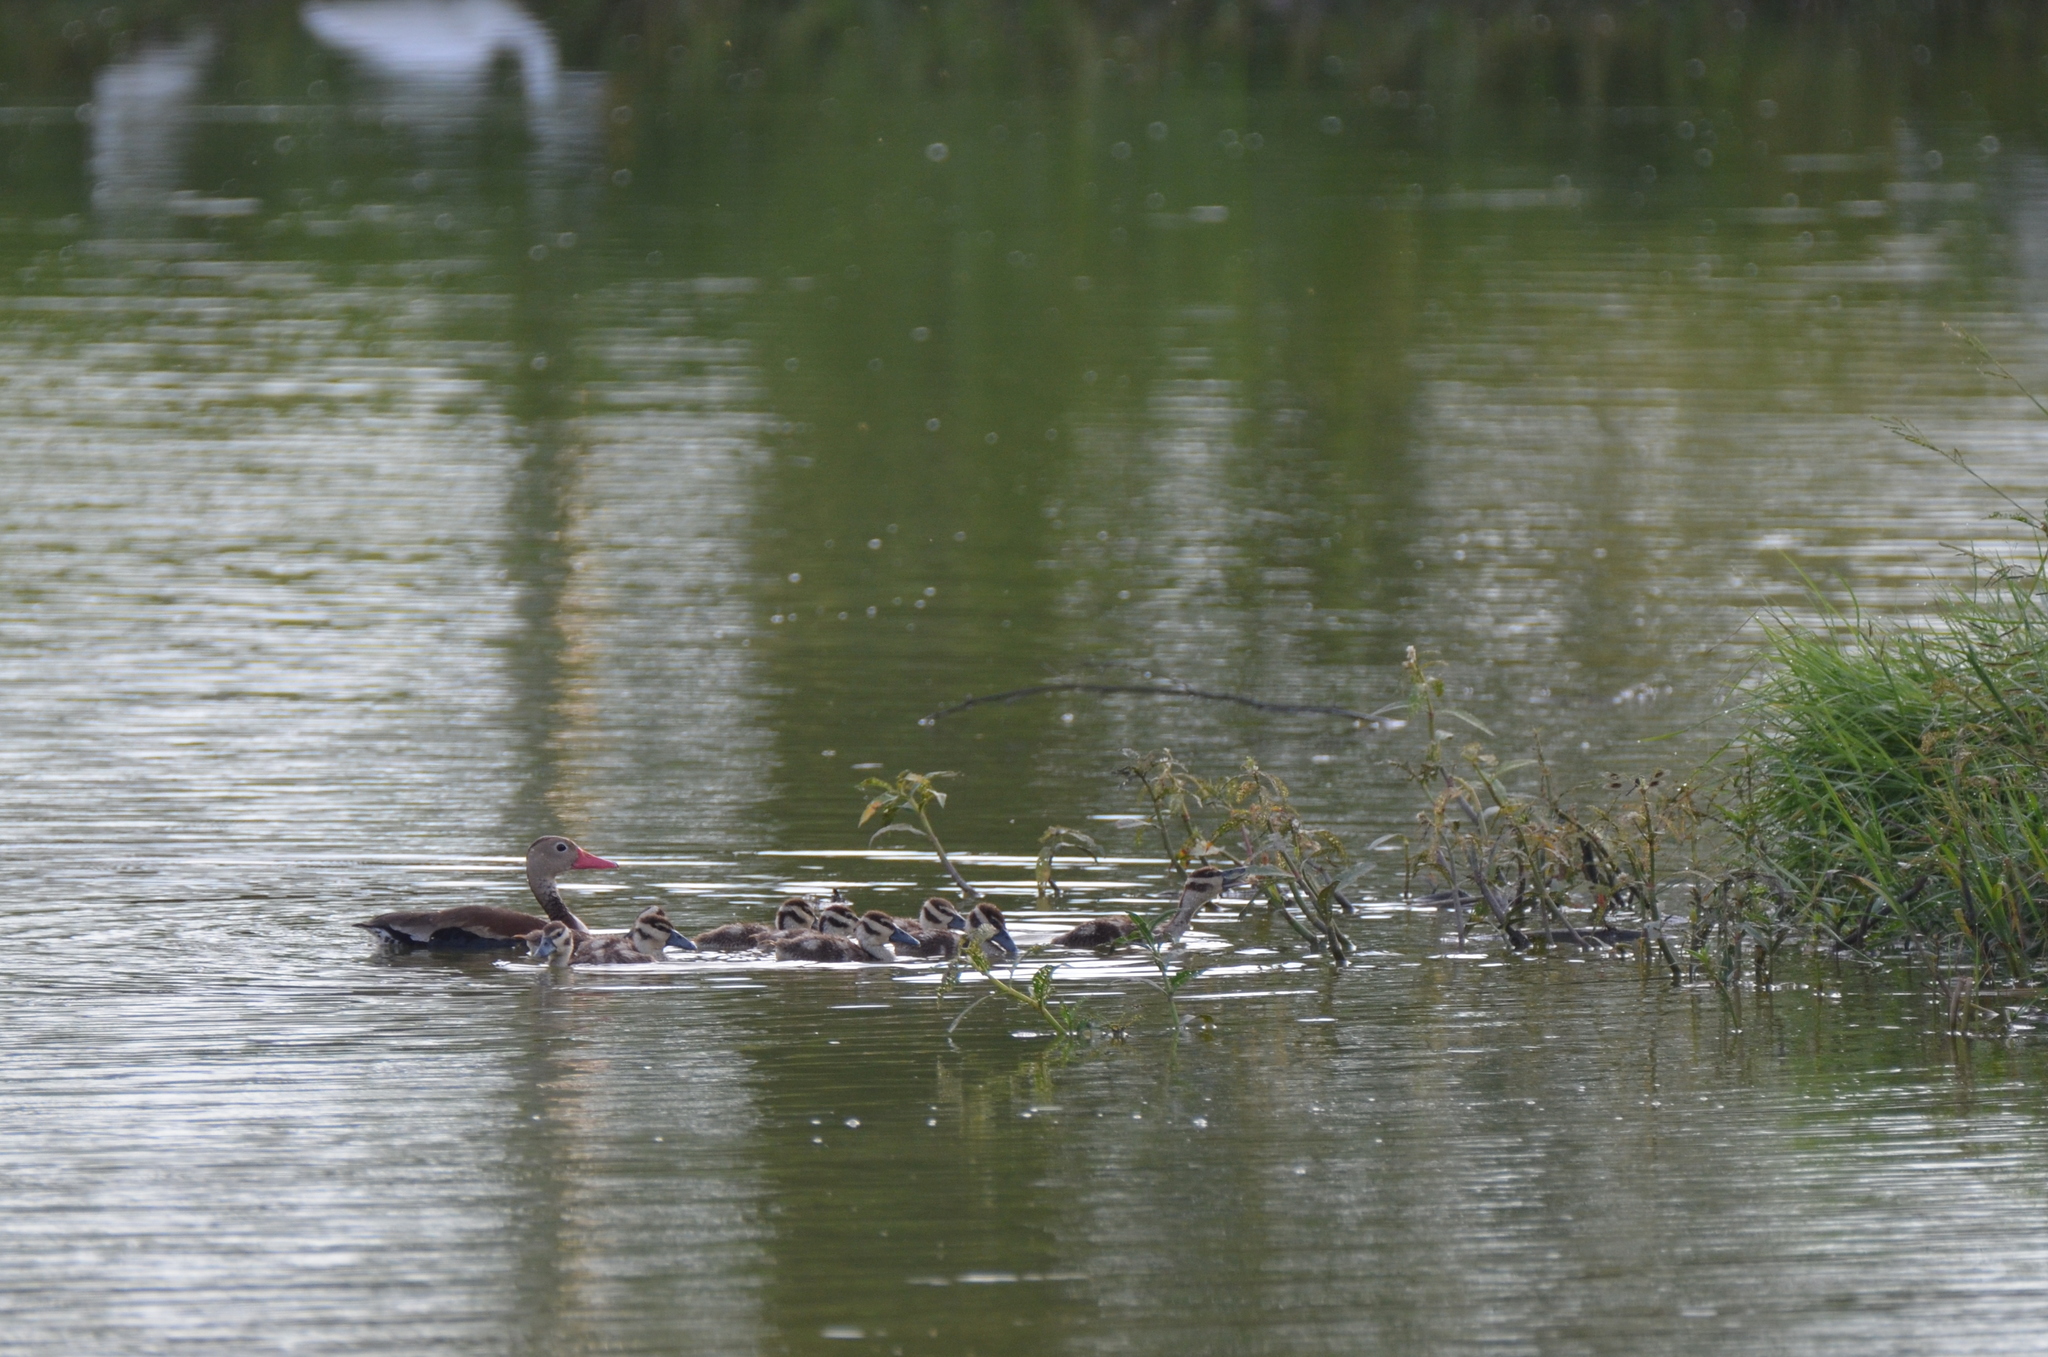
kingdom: Animalia
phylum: Chordata
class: Aves
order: Anseriformes
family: Anatidae
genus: Dendrocygna
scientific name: Dendrocygna autumnalis
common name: Black-bellied whistling duck
